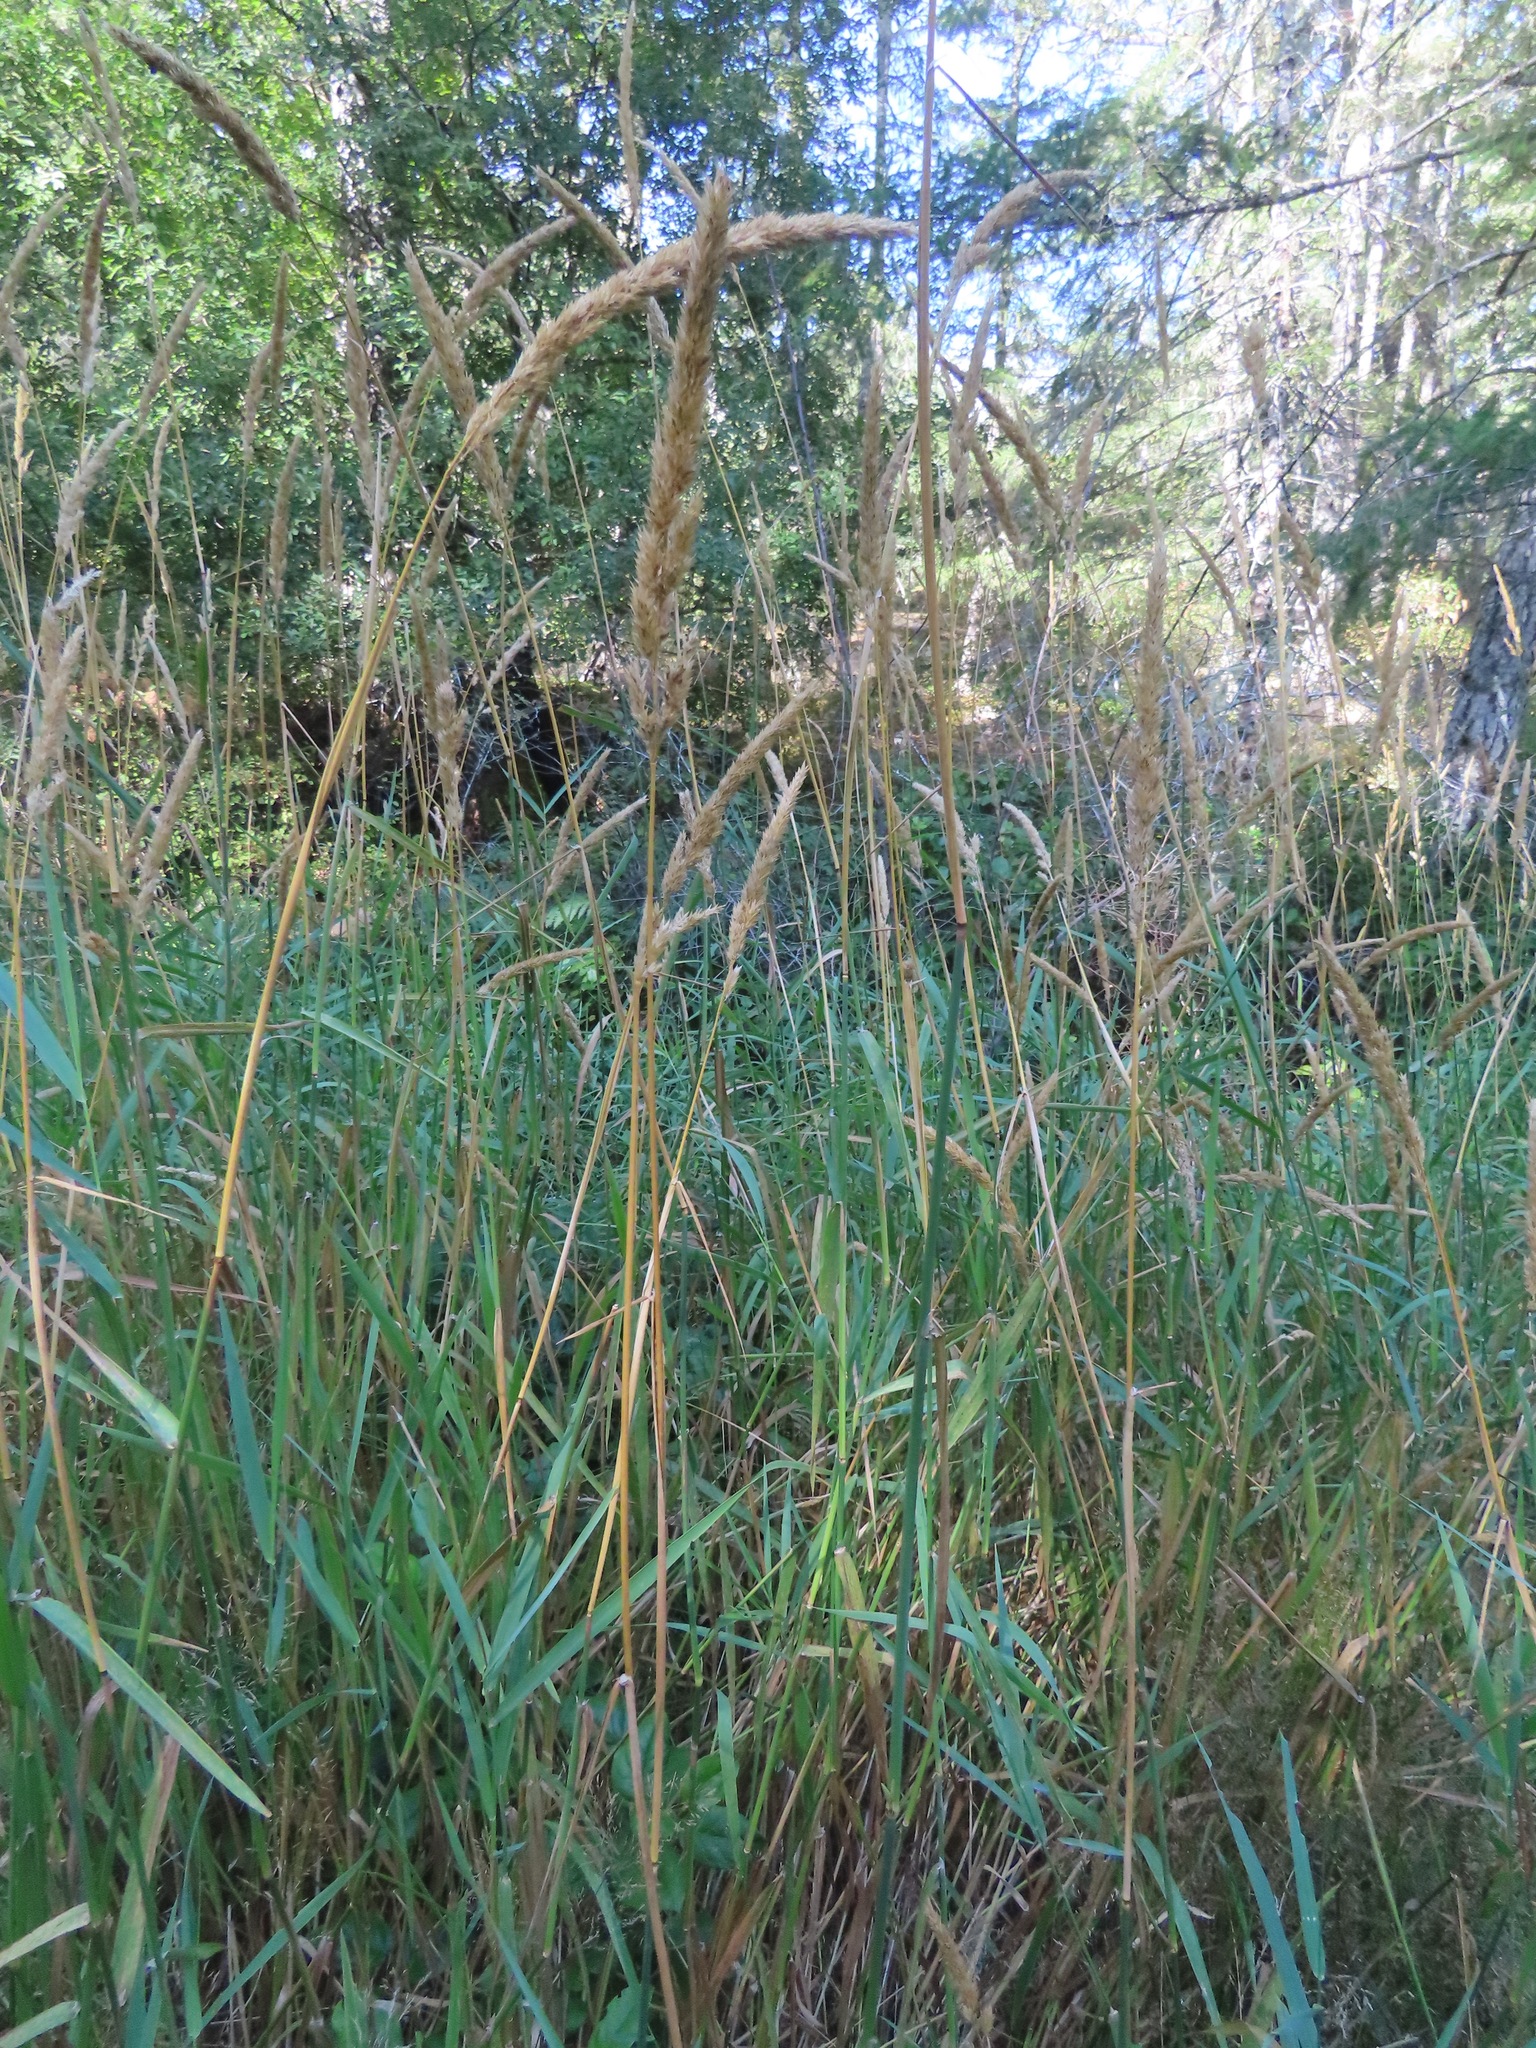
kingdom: Plantae
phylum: Tracheophyta
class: Liliopsida
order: Poales
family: Poaceae
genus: Phalaris
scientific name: Phalaris arundinacea
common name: Reed canary-grass
